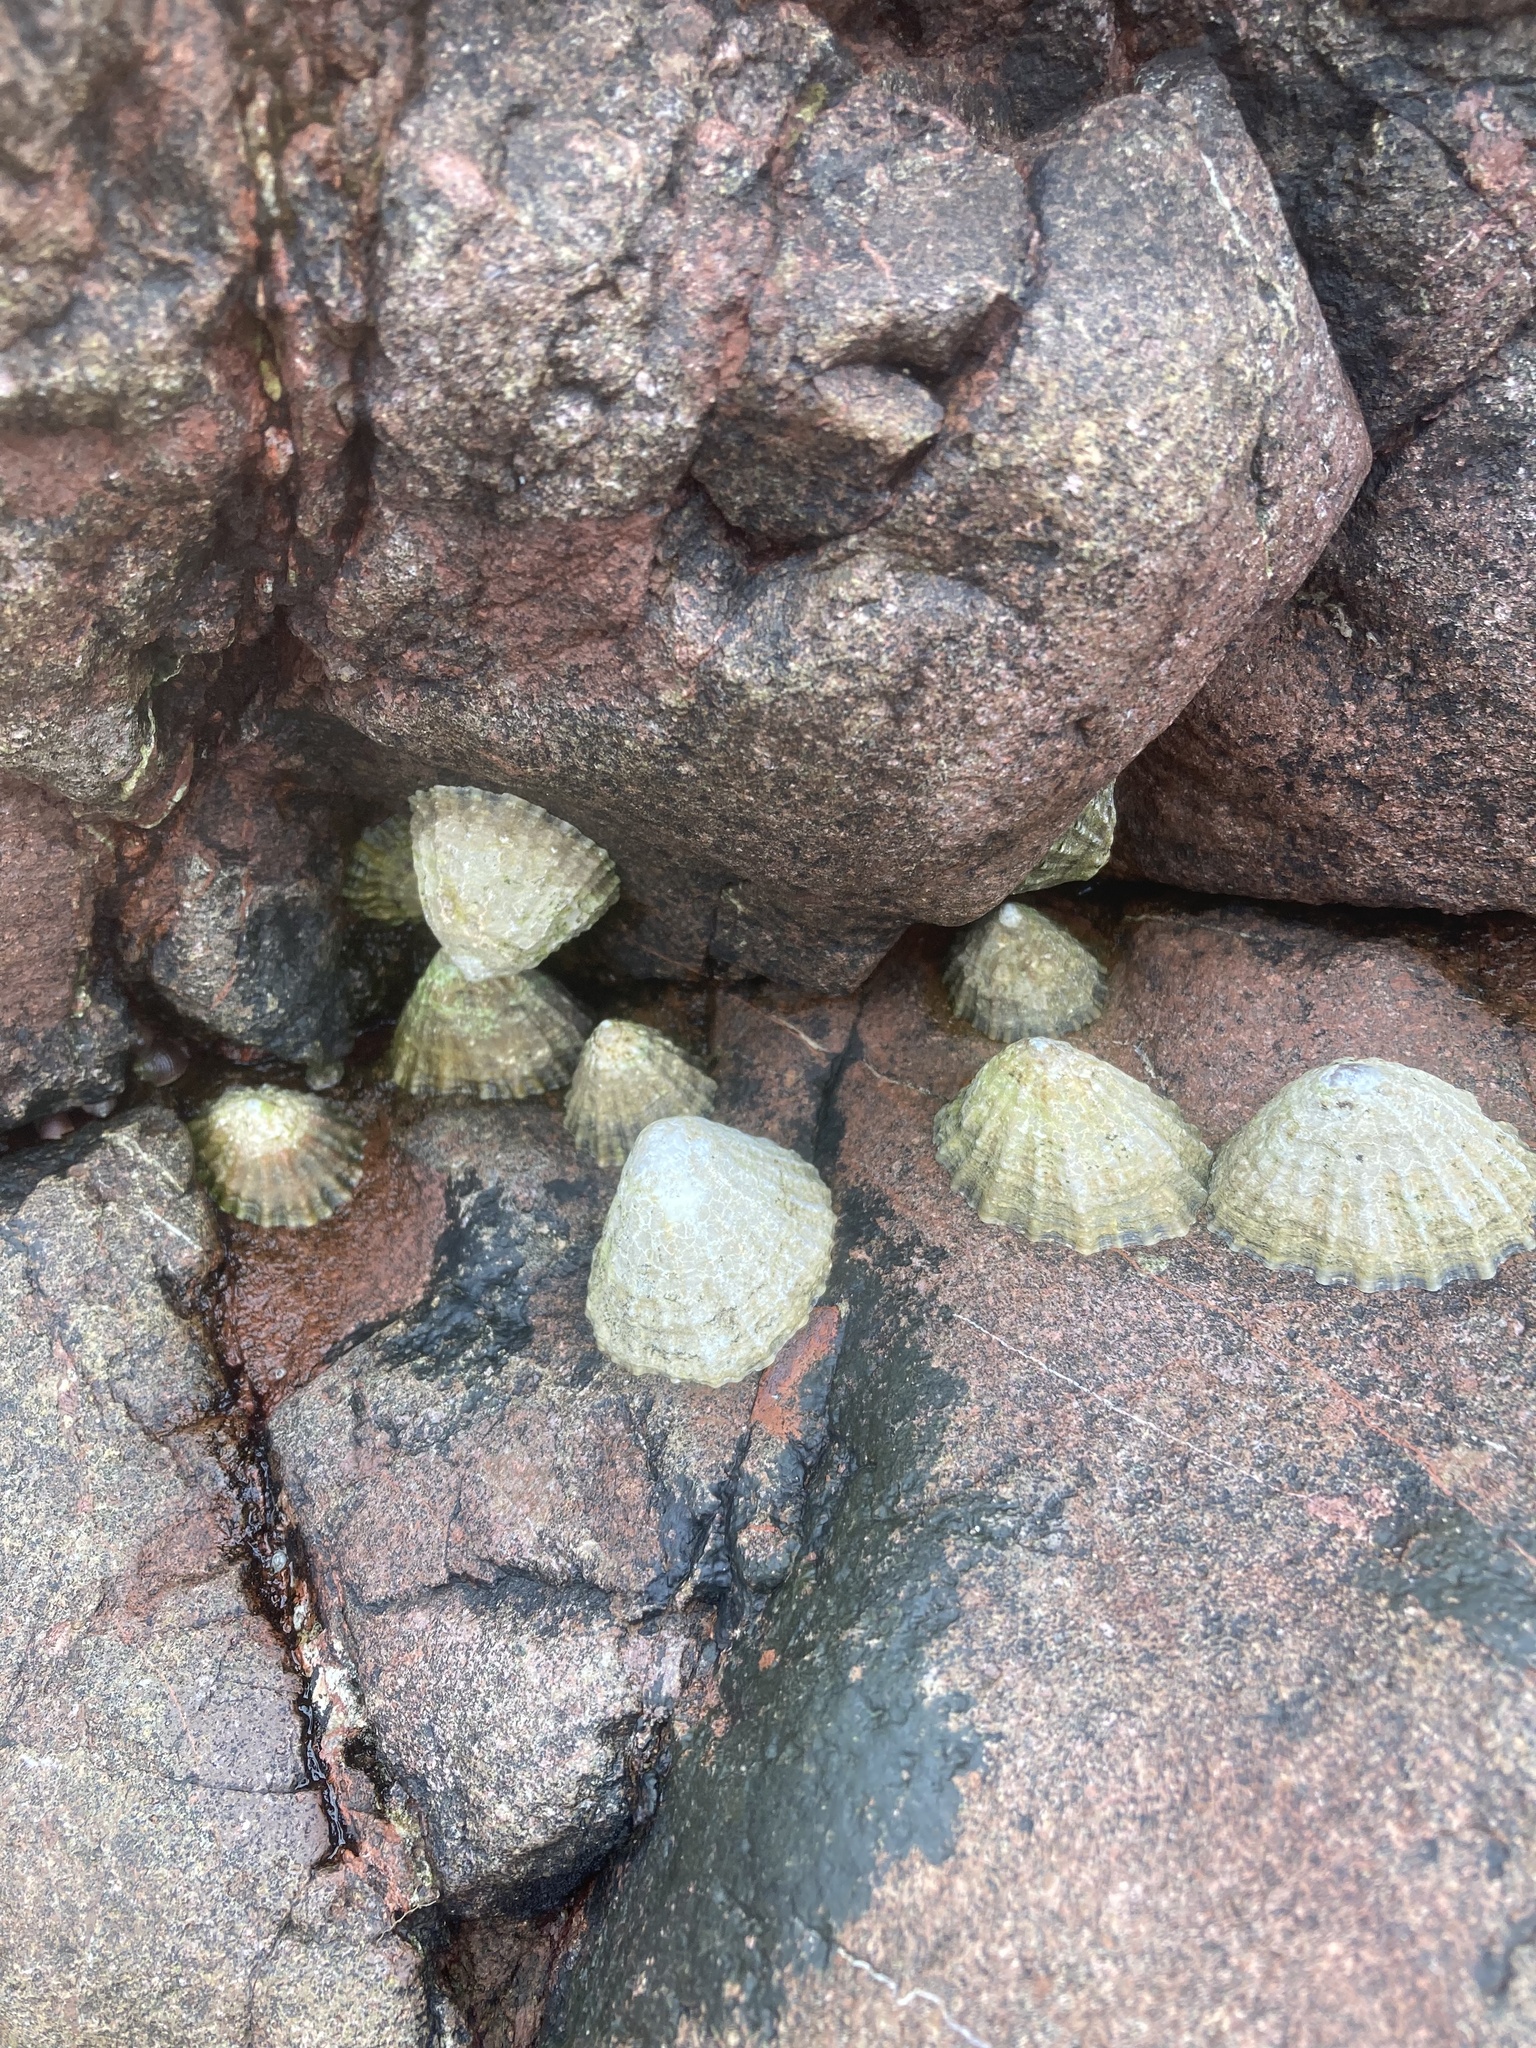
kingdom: Animalia
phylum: Mollusca
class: Gastropoda
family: Patellidae
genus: Patella
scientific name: Patella vulgata
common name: Common limpet
